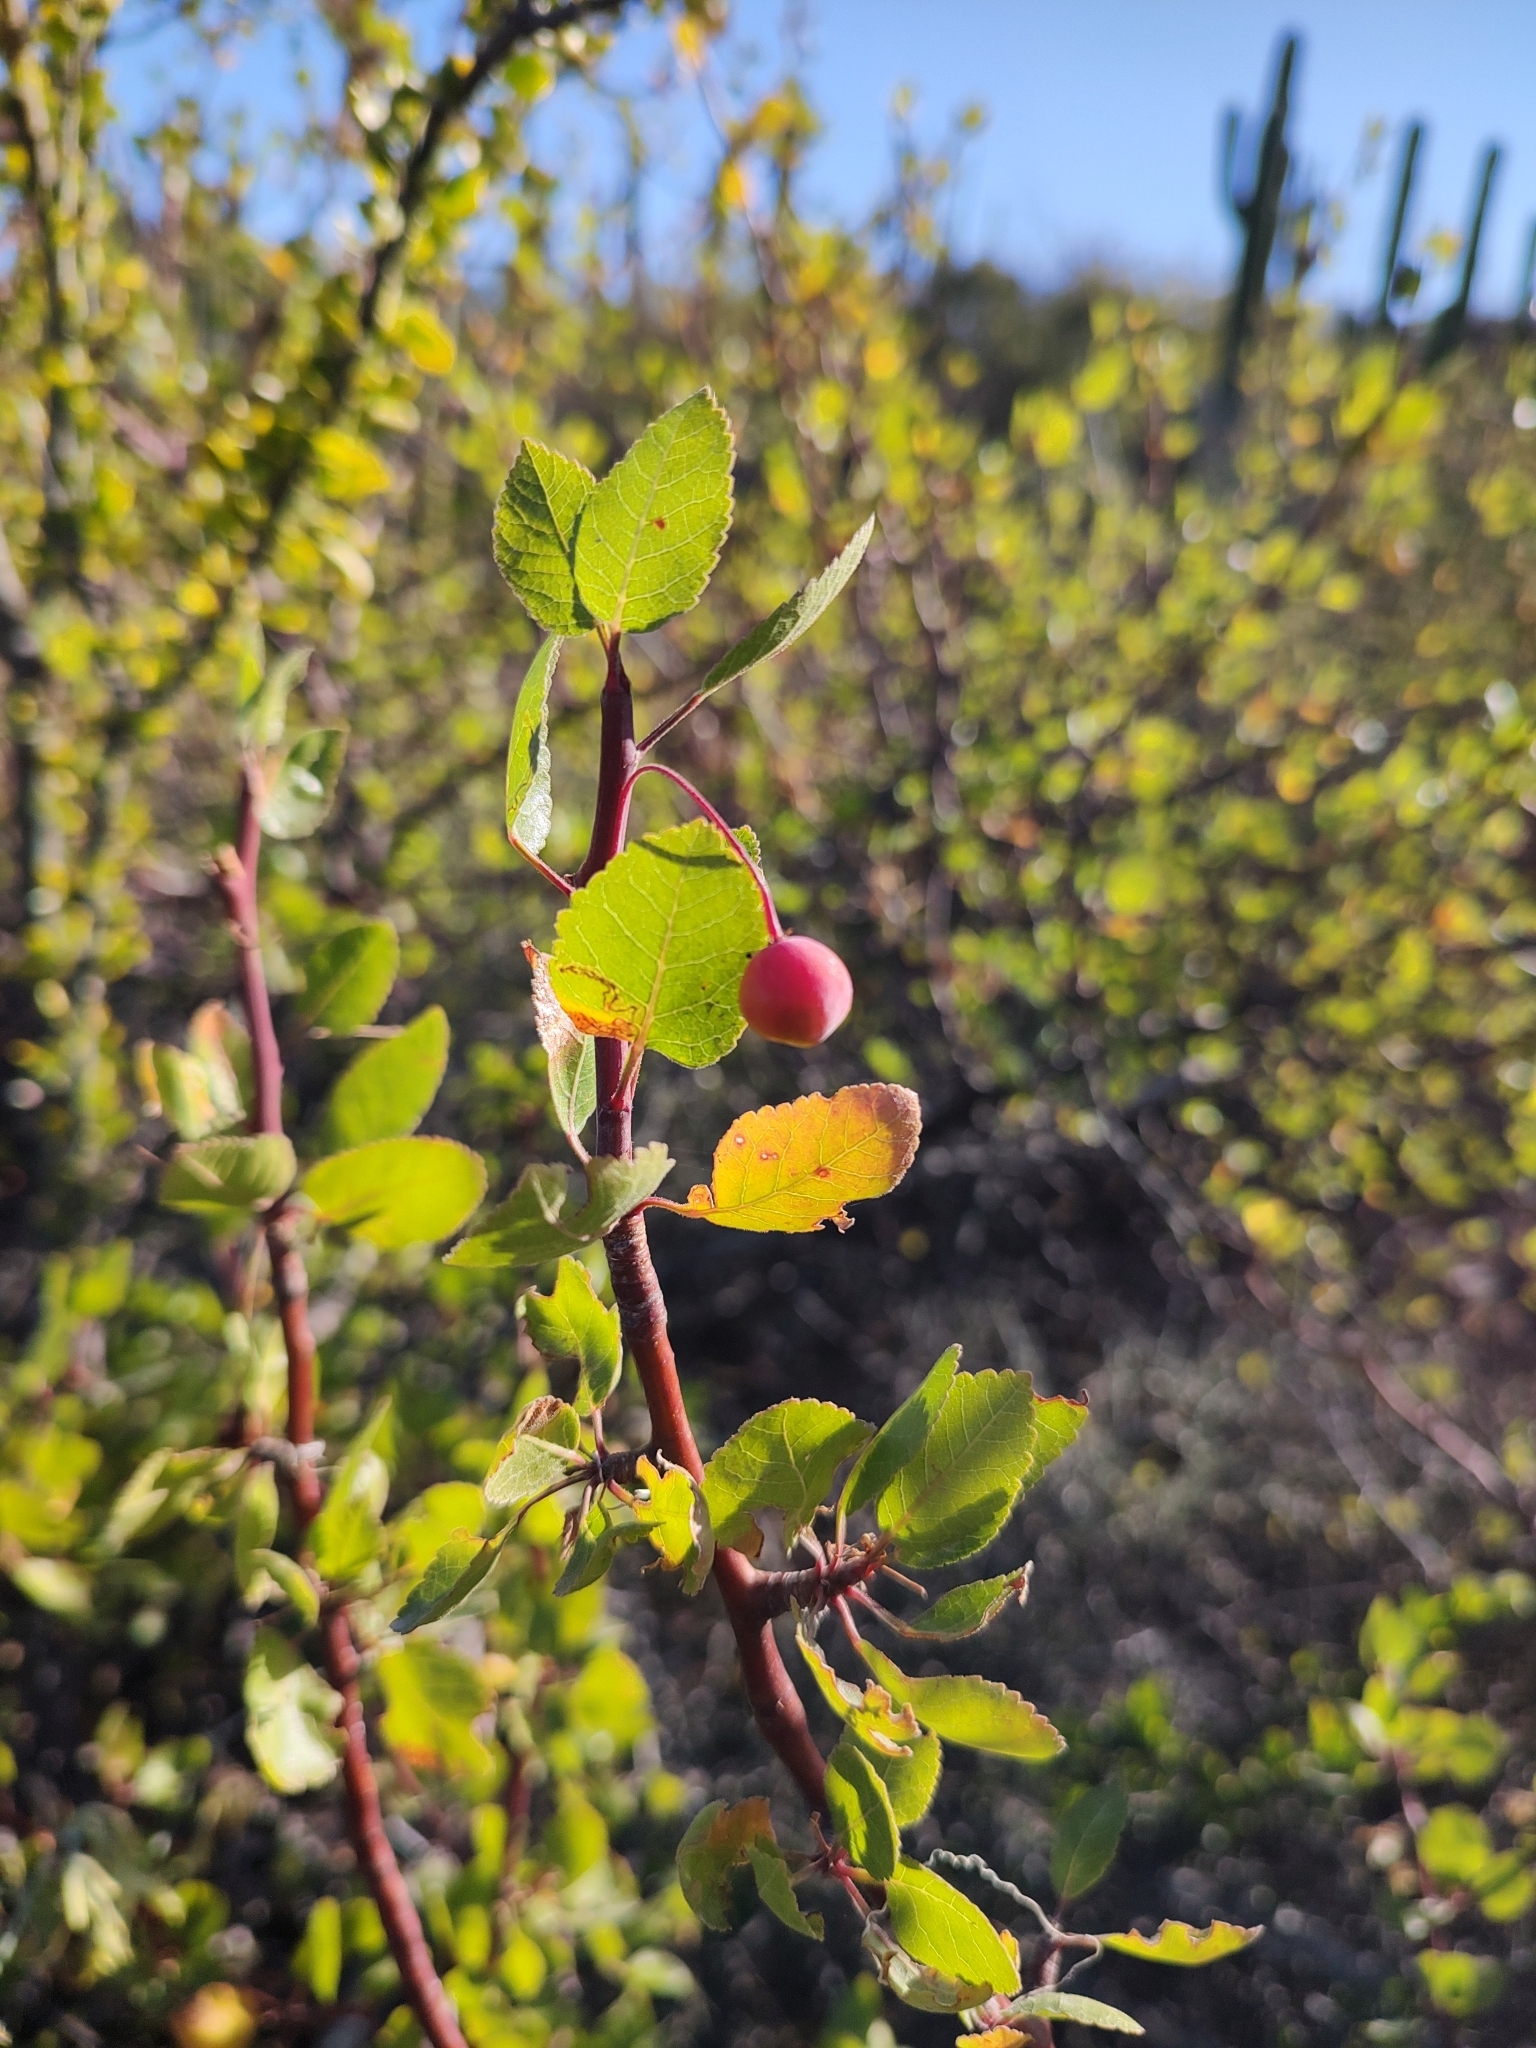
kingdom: Plantae
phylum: Tracheophyta
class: Magnoliopsida
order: Sapindales
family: Burseraceae
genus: Bursera
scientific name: Bursera epinnata
